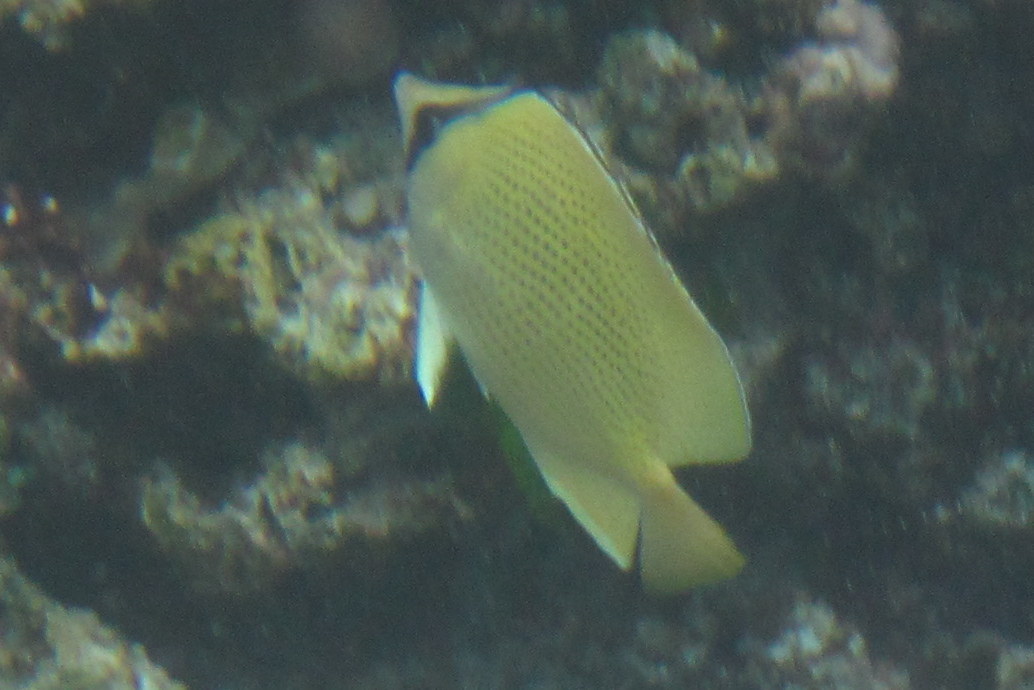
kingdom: Animalia
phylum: Chordata
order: Perciformes
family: Chaetodontidae
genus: Chaetodon
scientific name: Chaetodon citrinellus
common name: Speckled butterflyfish
